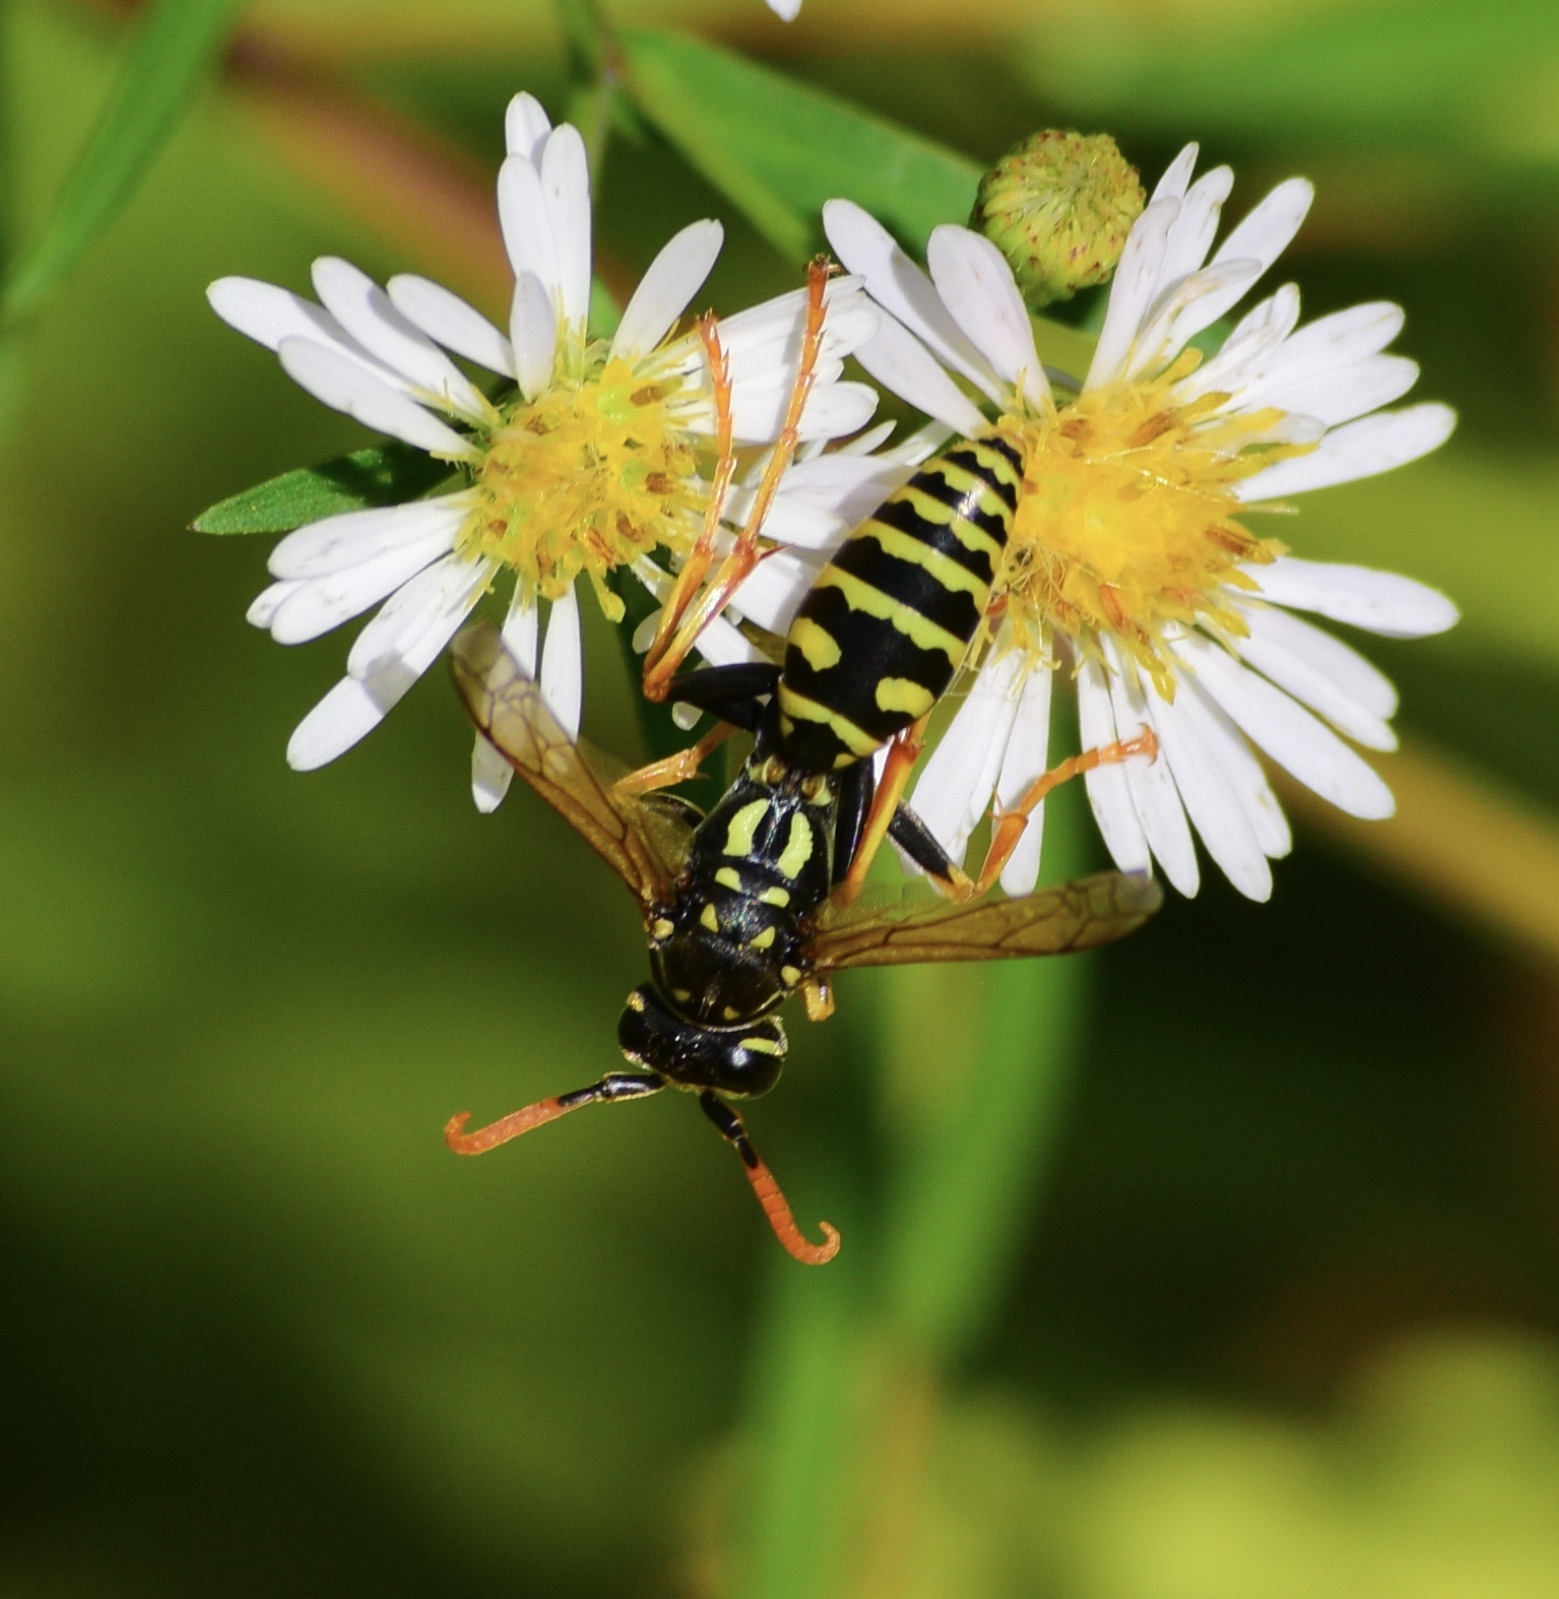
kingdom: Animalia
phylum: Arthropoda
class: Insecta
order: Hymenoptera
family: Eumenidae
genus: Polistes
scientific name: Polistes dominula
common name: Paper wasp
